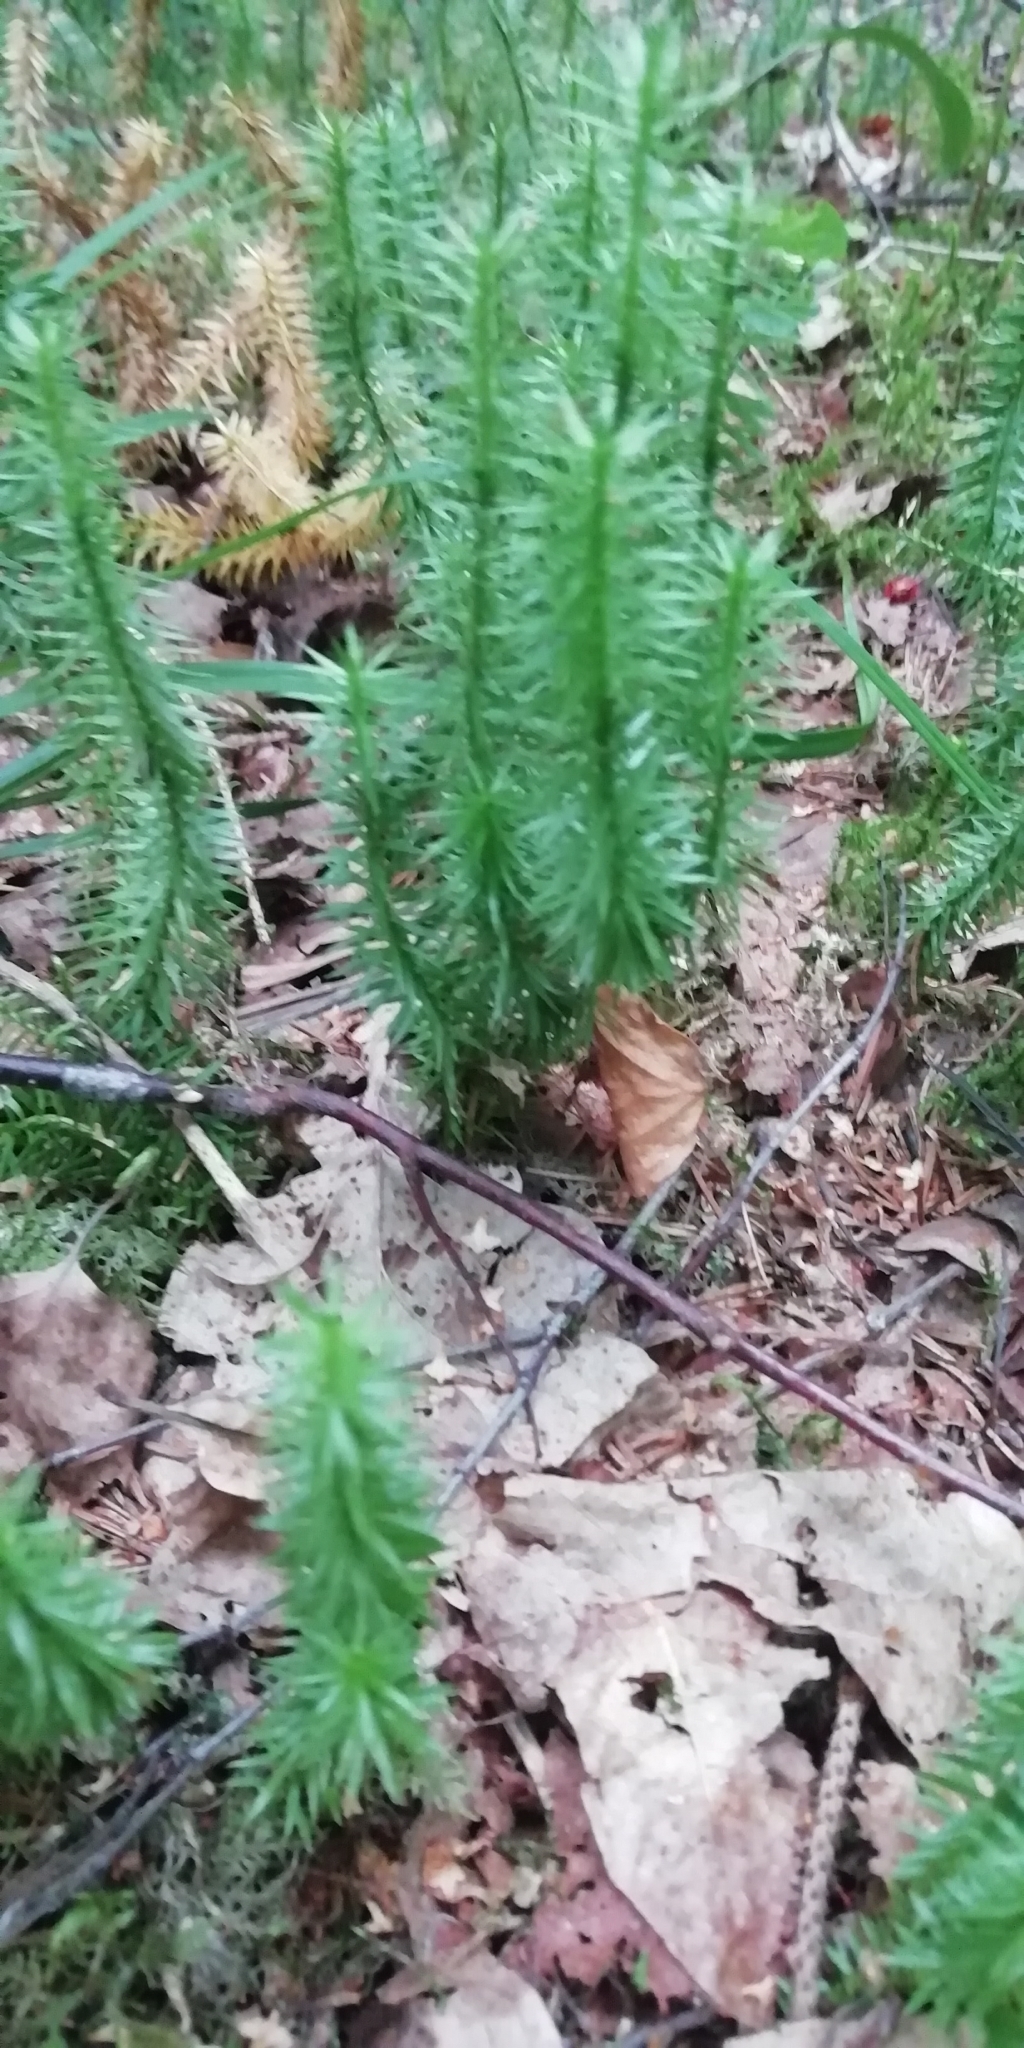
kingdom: Plantae
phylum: Tracheophyta
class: Lycopodiopsida
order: Lycopodiales
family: Lycopodiaceae
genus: Spinulum
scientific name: Spinulum annotinum
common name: Interrupted club-moss
